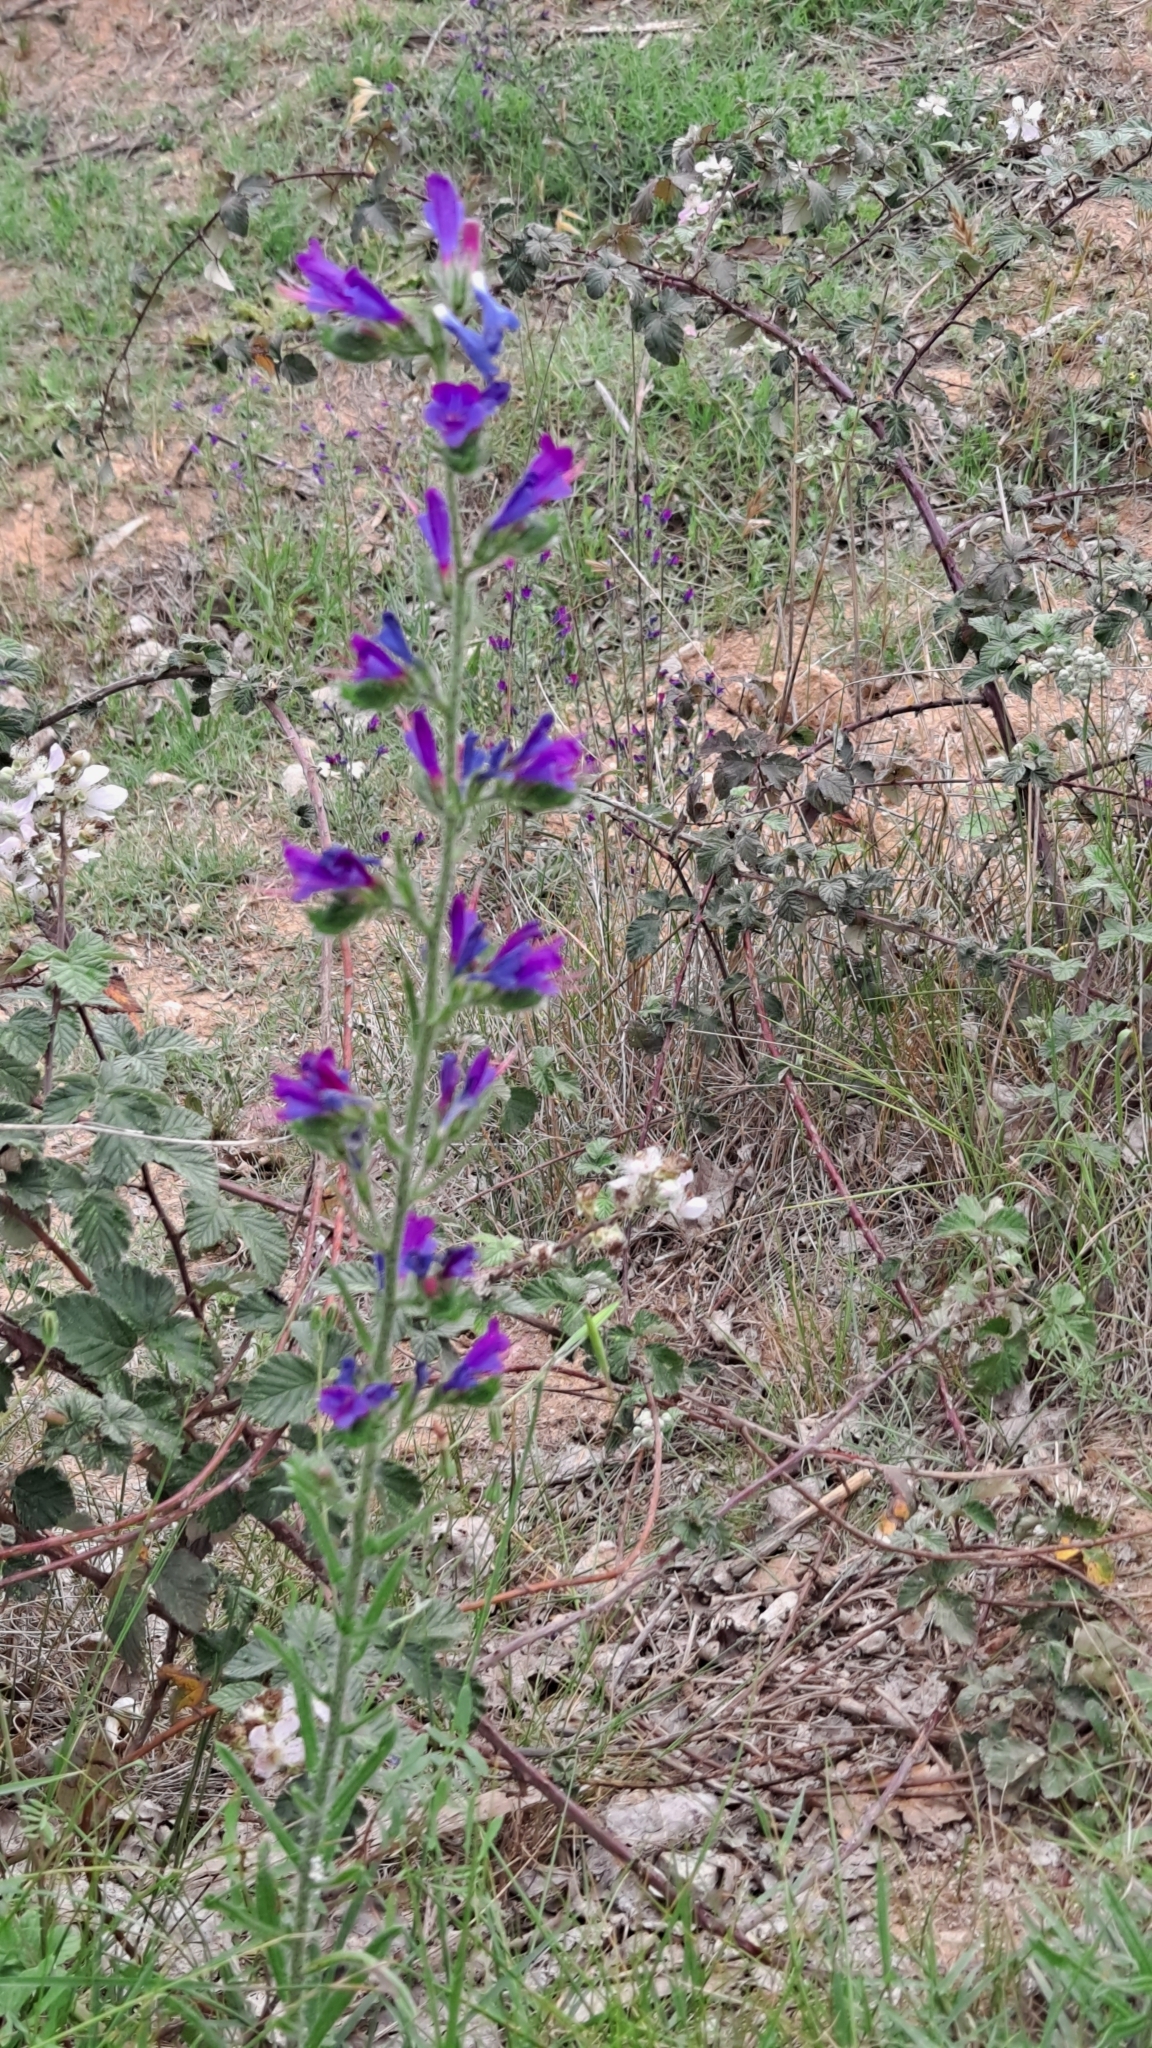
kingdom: Plantae
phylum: Tracheophyta
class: Magnoliopsida
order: Boraginales
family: Boraginaceae
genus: Echium
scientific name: Echium vulgare
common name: Common viper's bugloss
